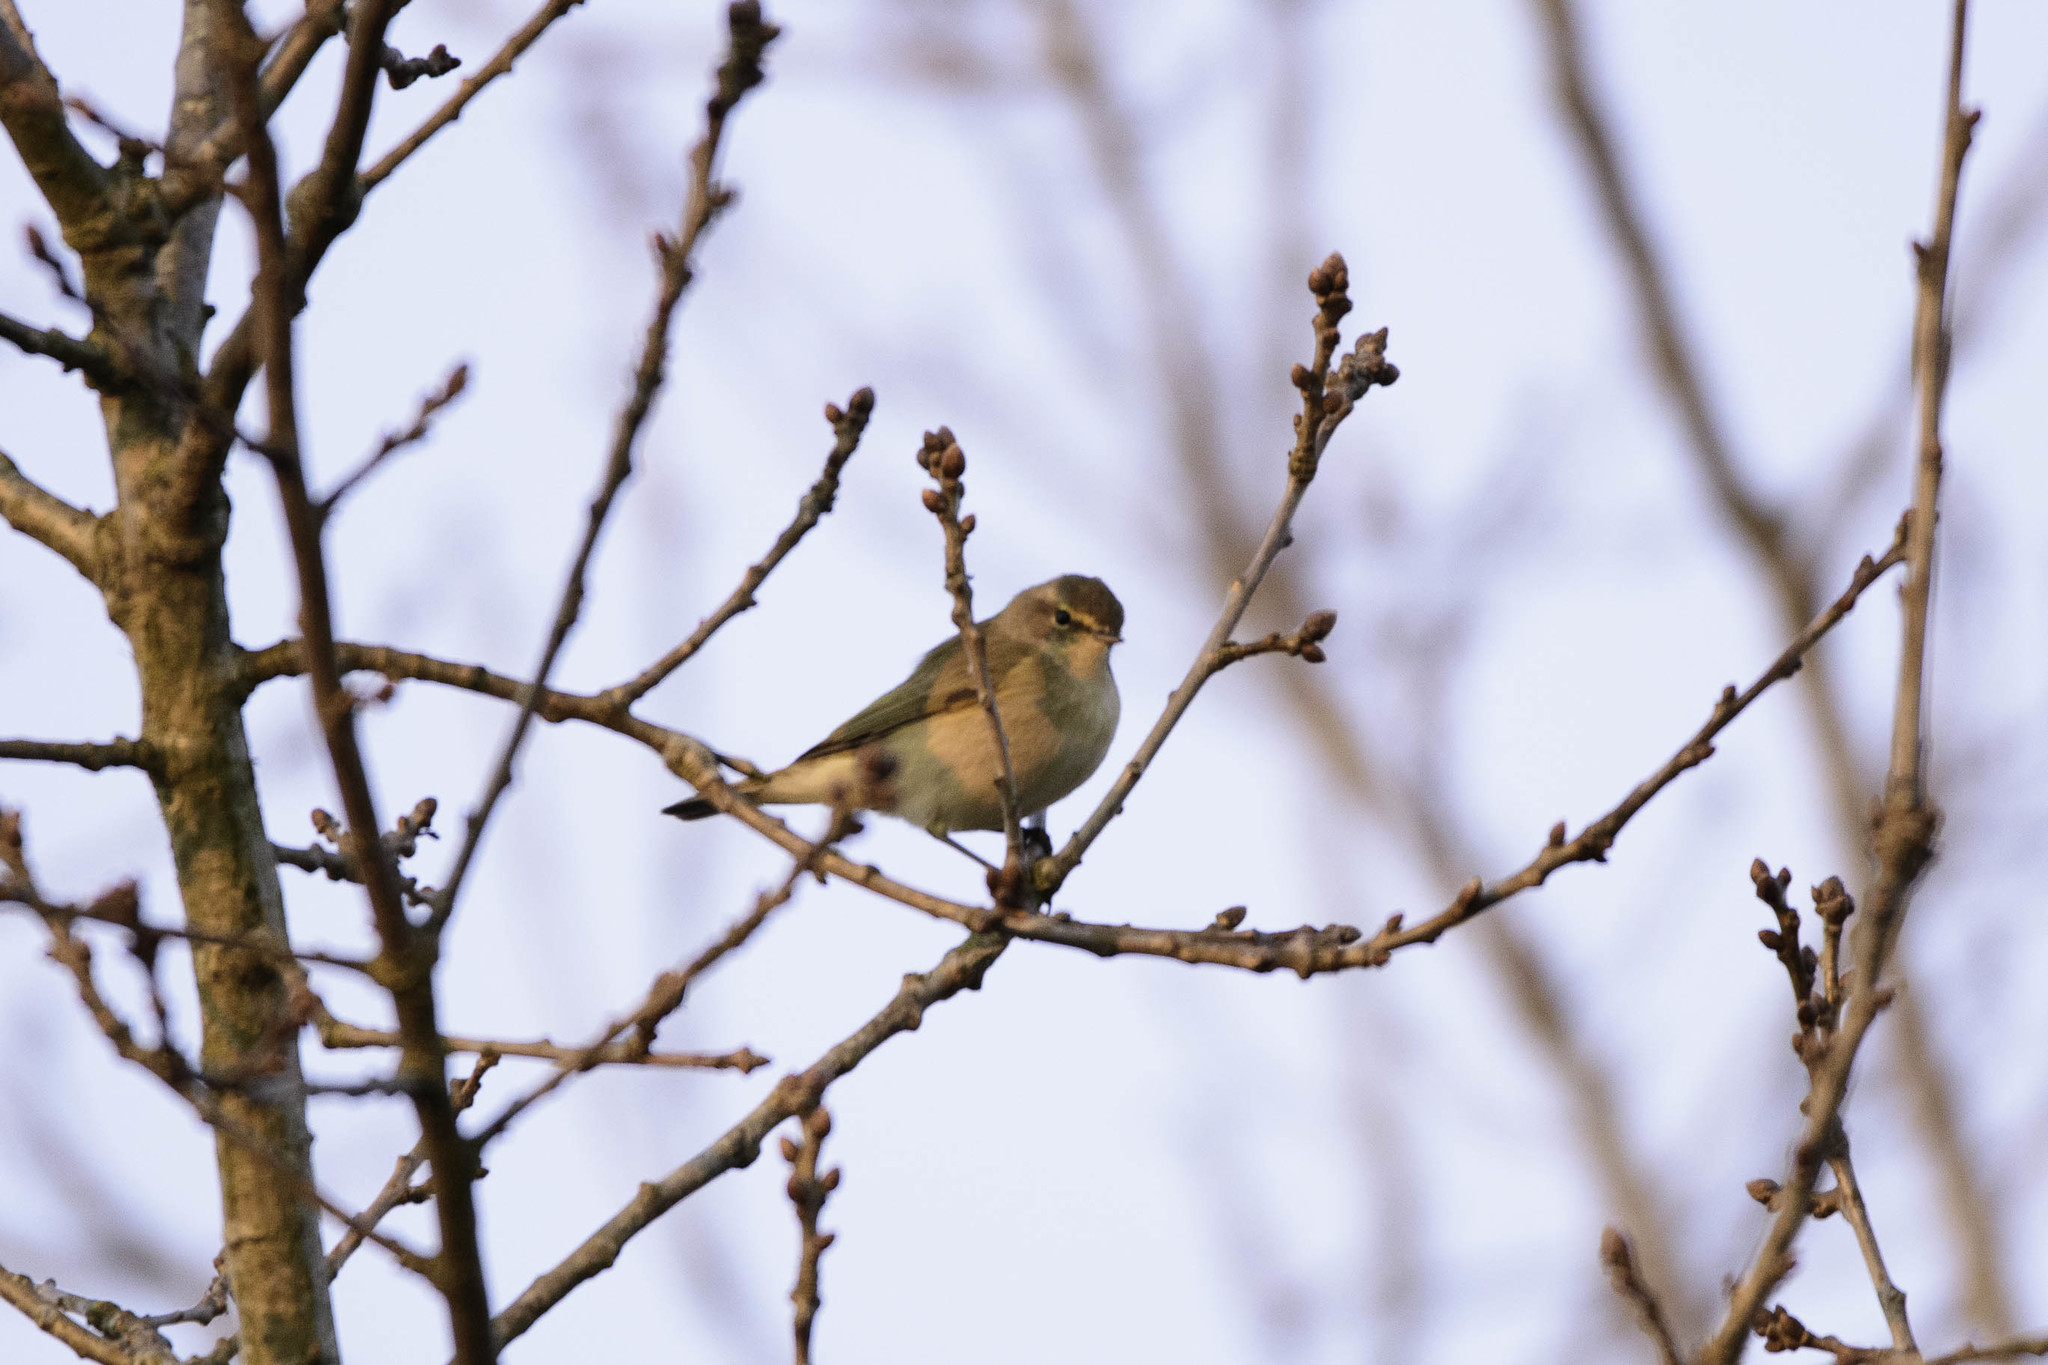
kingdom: Animalia
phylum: Chordata
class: Aves
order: Passeriformes
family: Phylloscopidae
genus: Phylloscopus
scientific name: Phylloscopus collybita
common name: Common chiffchaff
